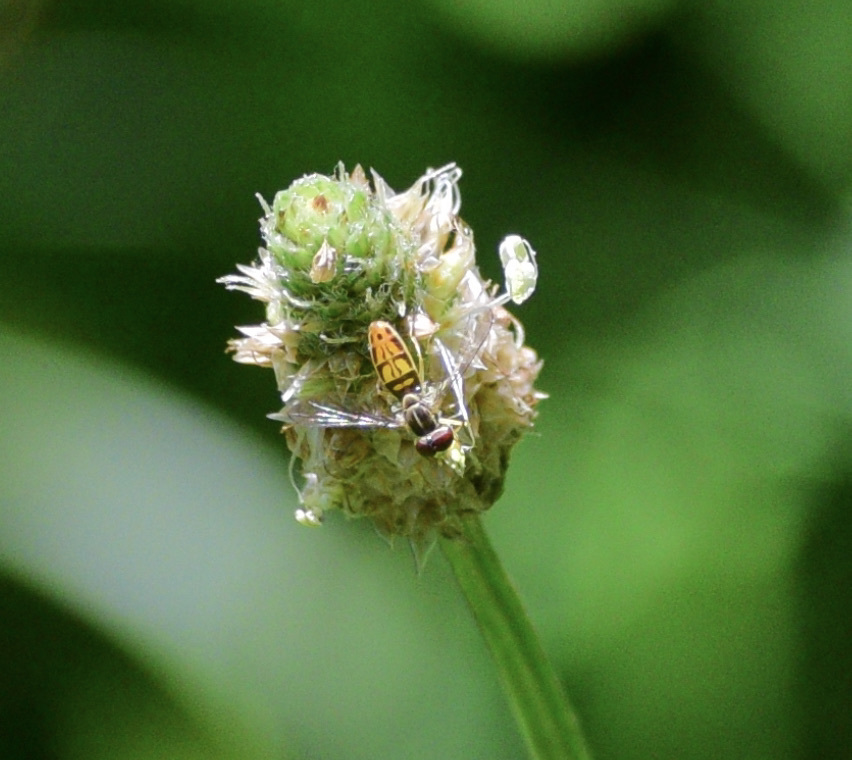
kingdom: Animalia
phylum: Arthropoda
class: Insecta
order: Diptera
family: Syrphidae
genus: Toxomerus
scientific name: Toxomerus marginatus
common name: Syrphid fly
